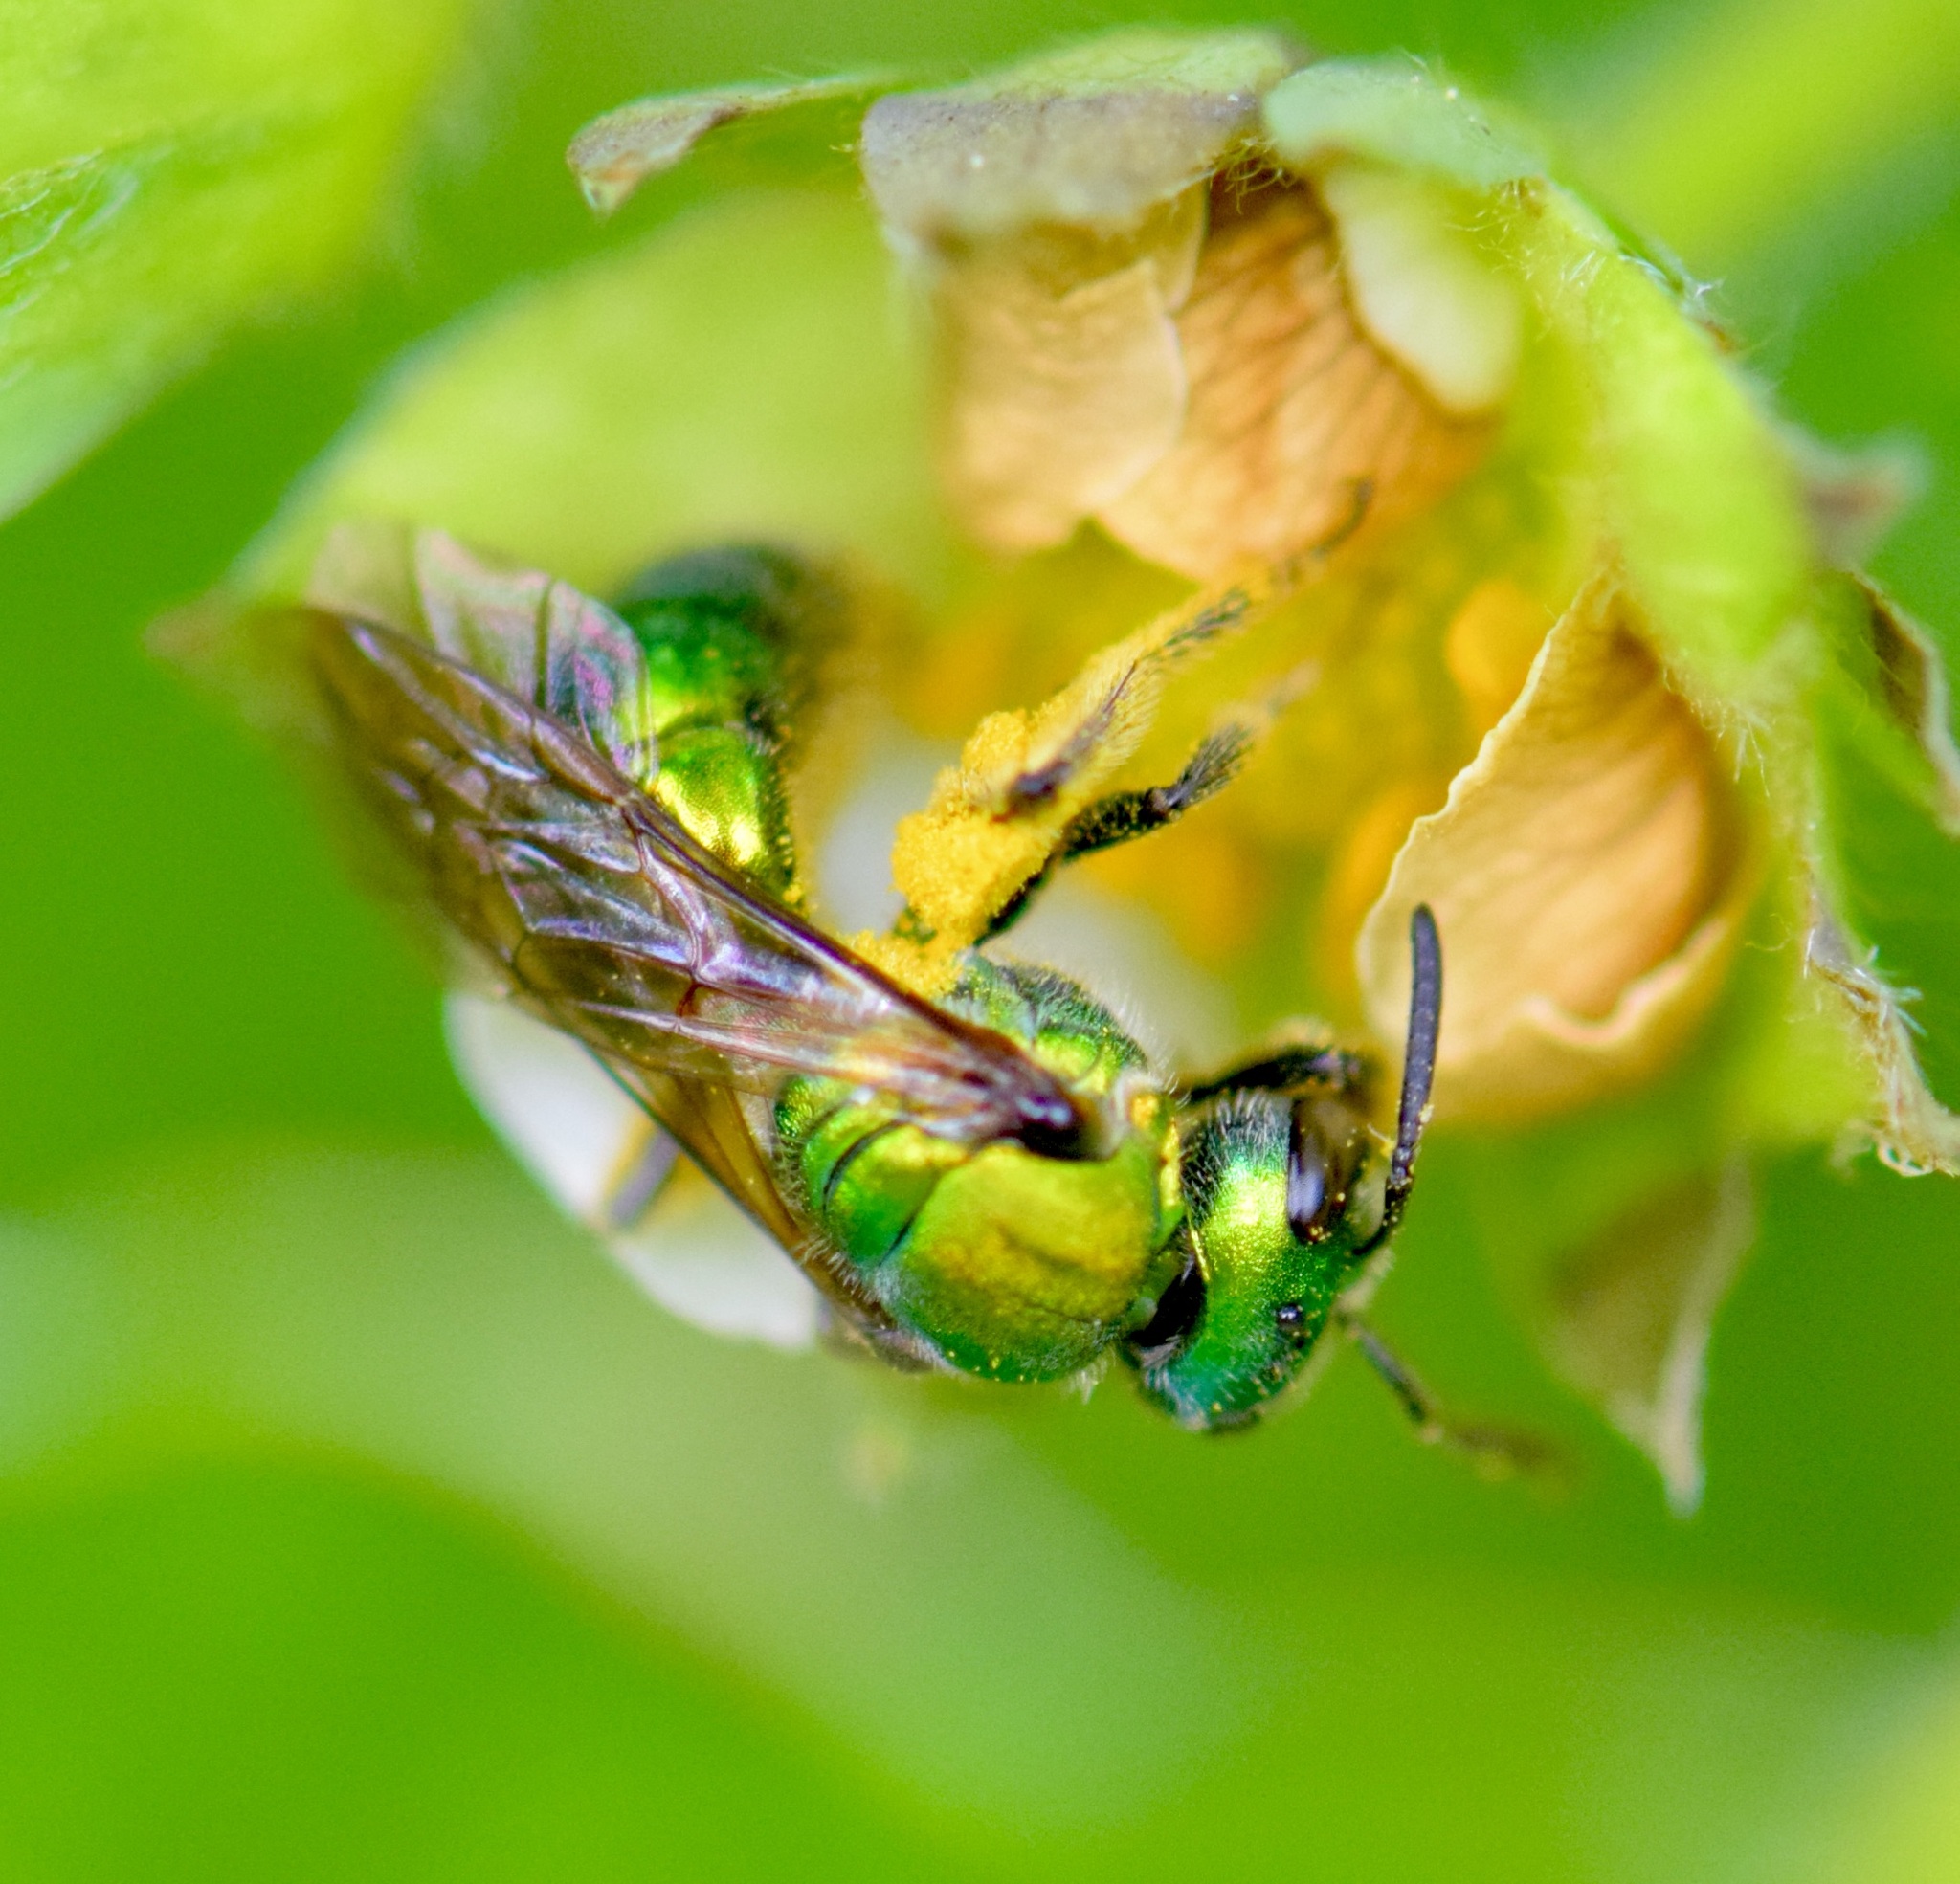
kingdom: Animalia
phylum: Arthropoda
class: Insecta
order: Hymenoptera
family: Halictidae
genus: Augochlora
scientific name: Augochlora pura
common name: Pure green sweat bee
